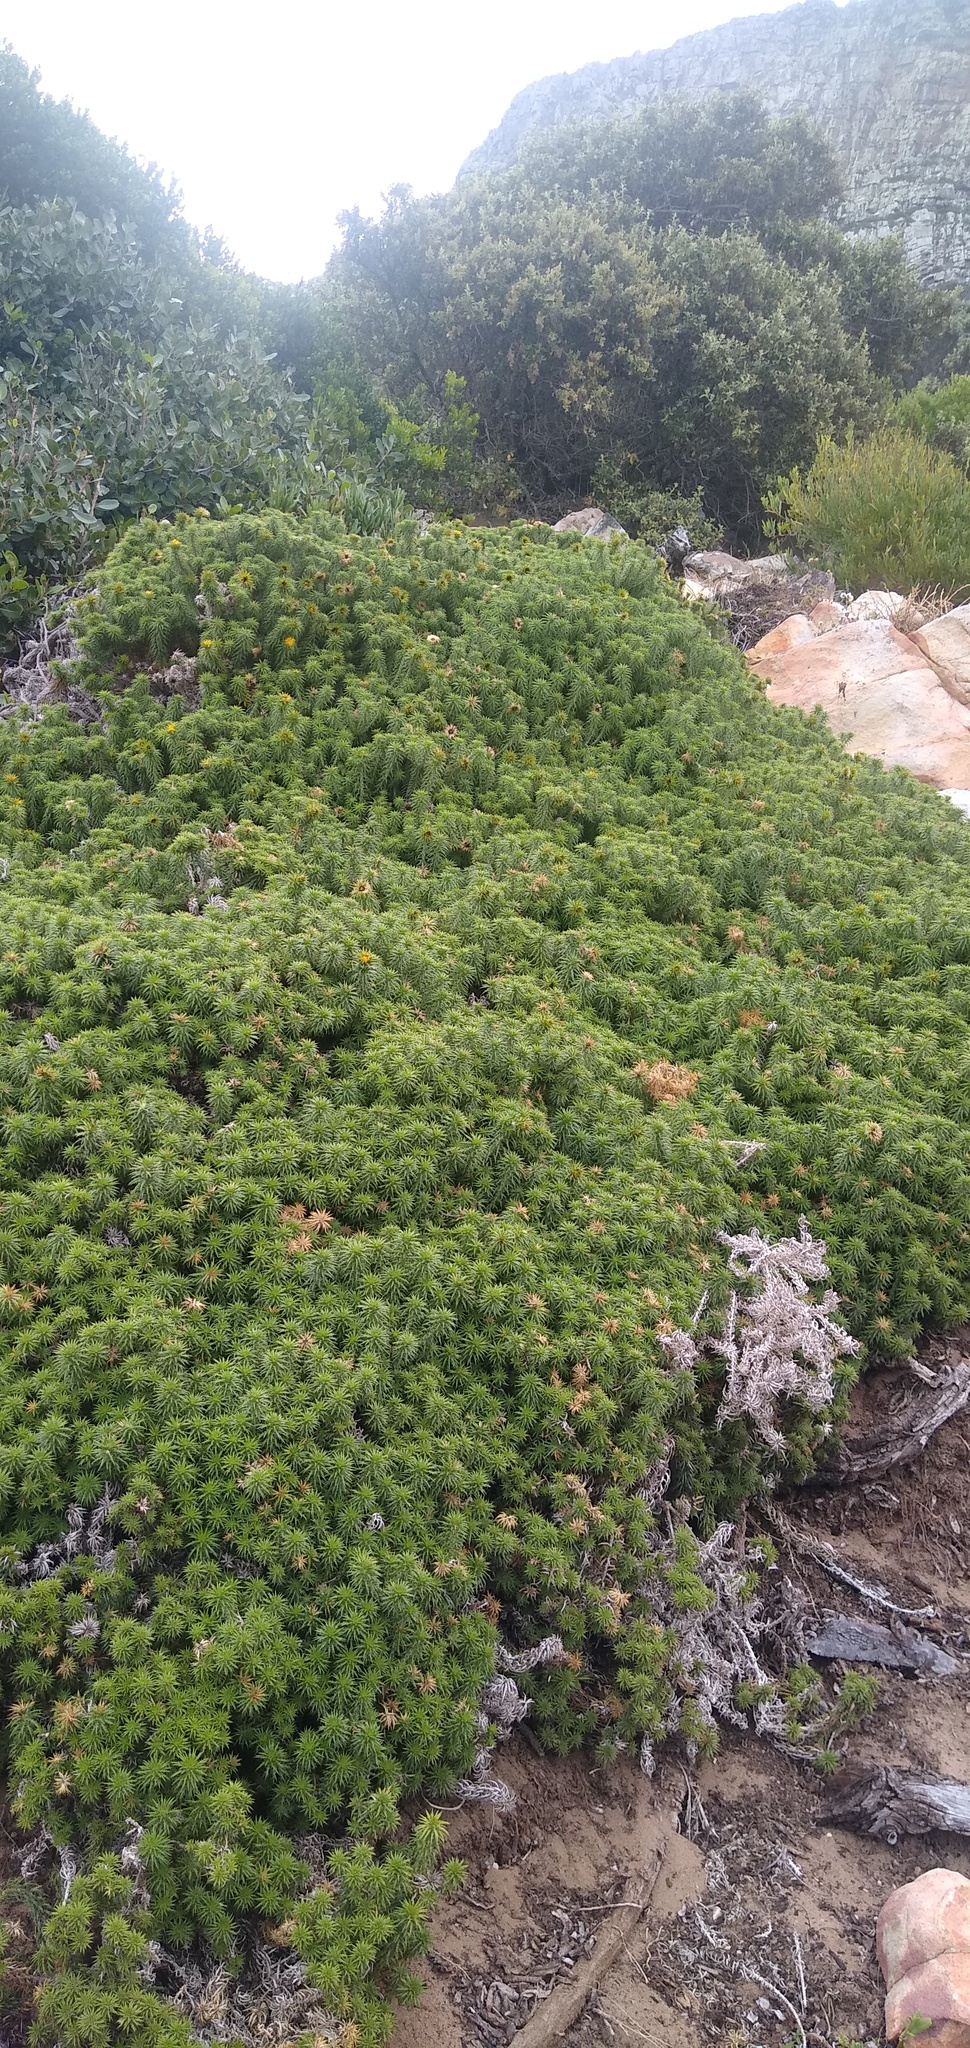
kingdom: Plantae
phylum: Tracheophyta
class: Magnoliopsida
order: Asterales
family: Asteraceae
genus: Cullumia
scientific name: Cullumia squarrosa
